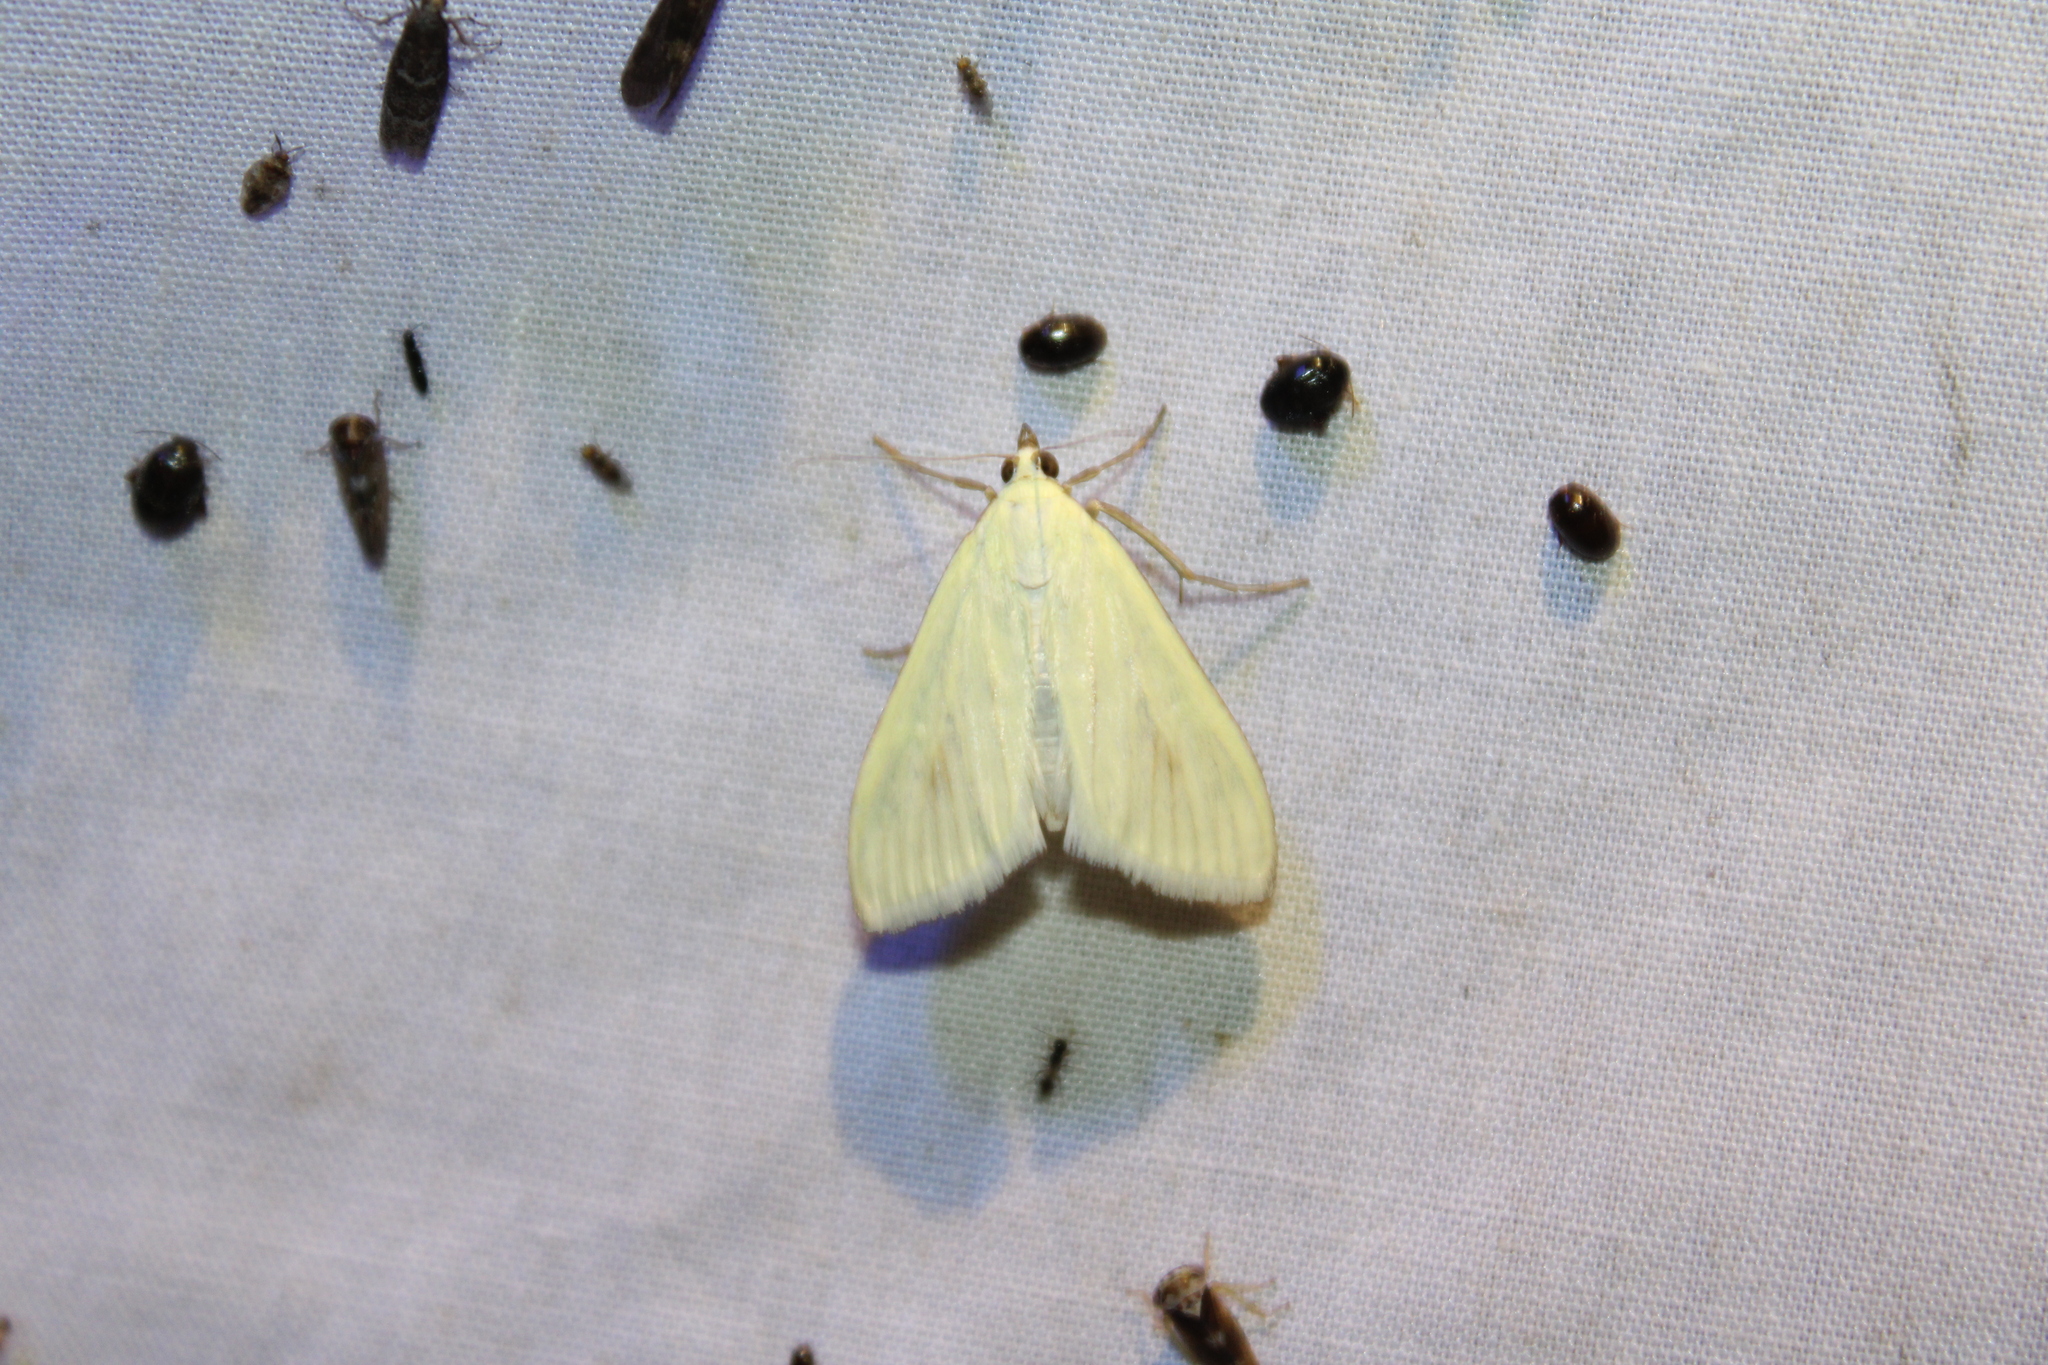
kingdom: Animalia
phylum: Arthropoda
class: Insecta
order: Lepidoptera
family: Crambidae
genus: Sitochroa
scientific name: Sitochroa palealis
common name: Greenish-yellow sitochroa moth
